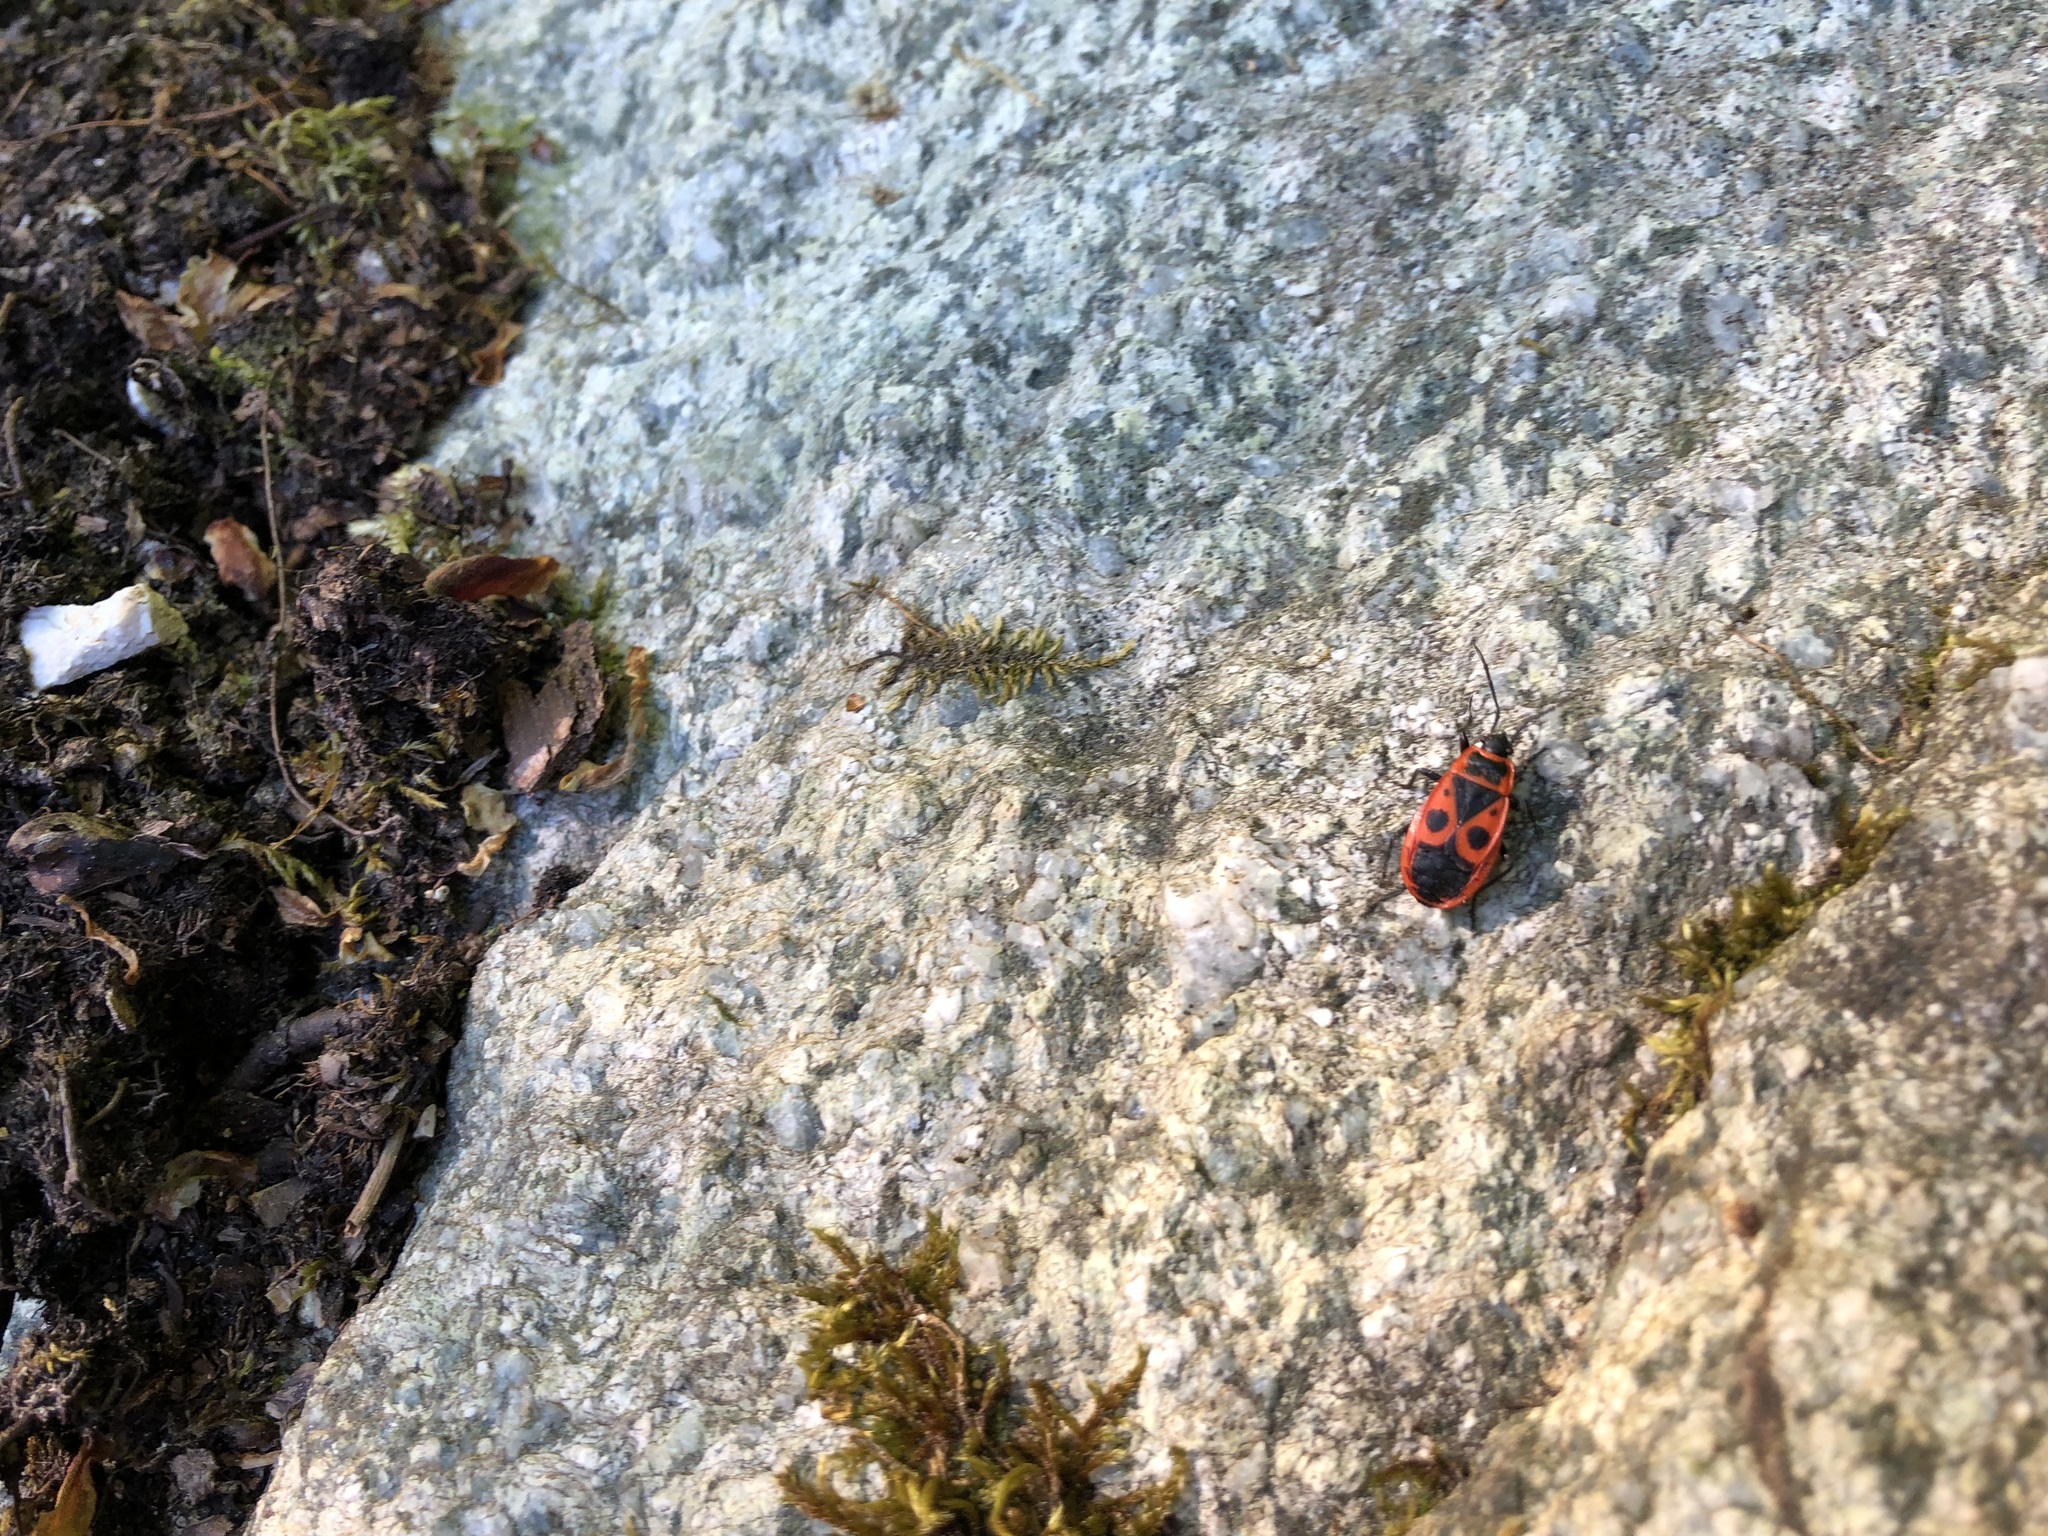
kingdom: Animalia
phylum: Arthropoda
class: Insecta
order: Hemiptera
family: Pyrrhocoridae
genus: Pyrrhocoris
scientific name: Pyrrhocoris apterus
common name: Firebug
